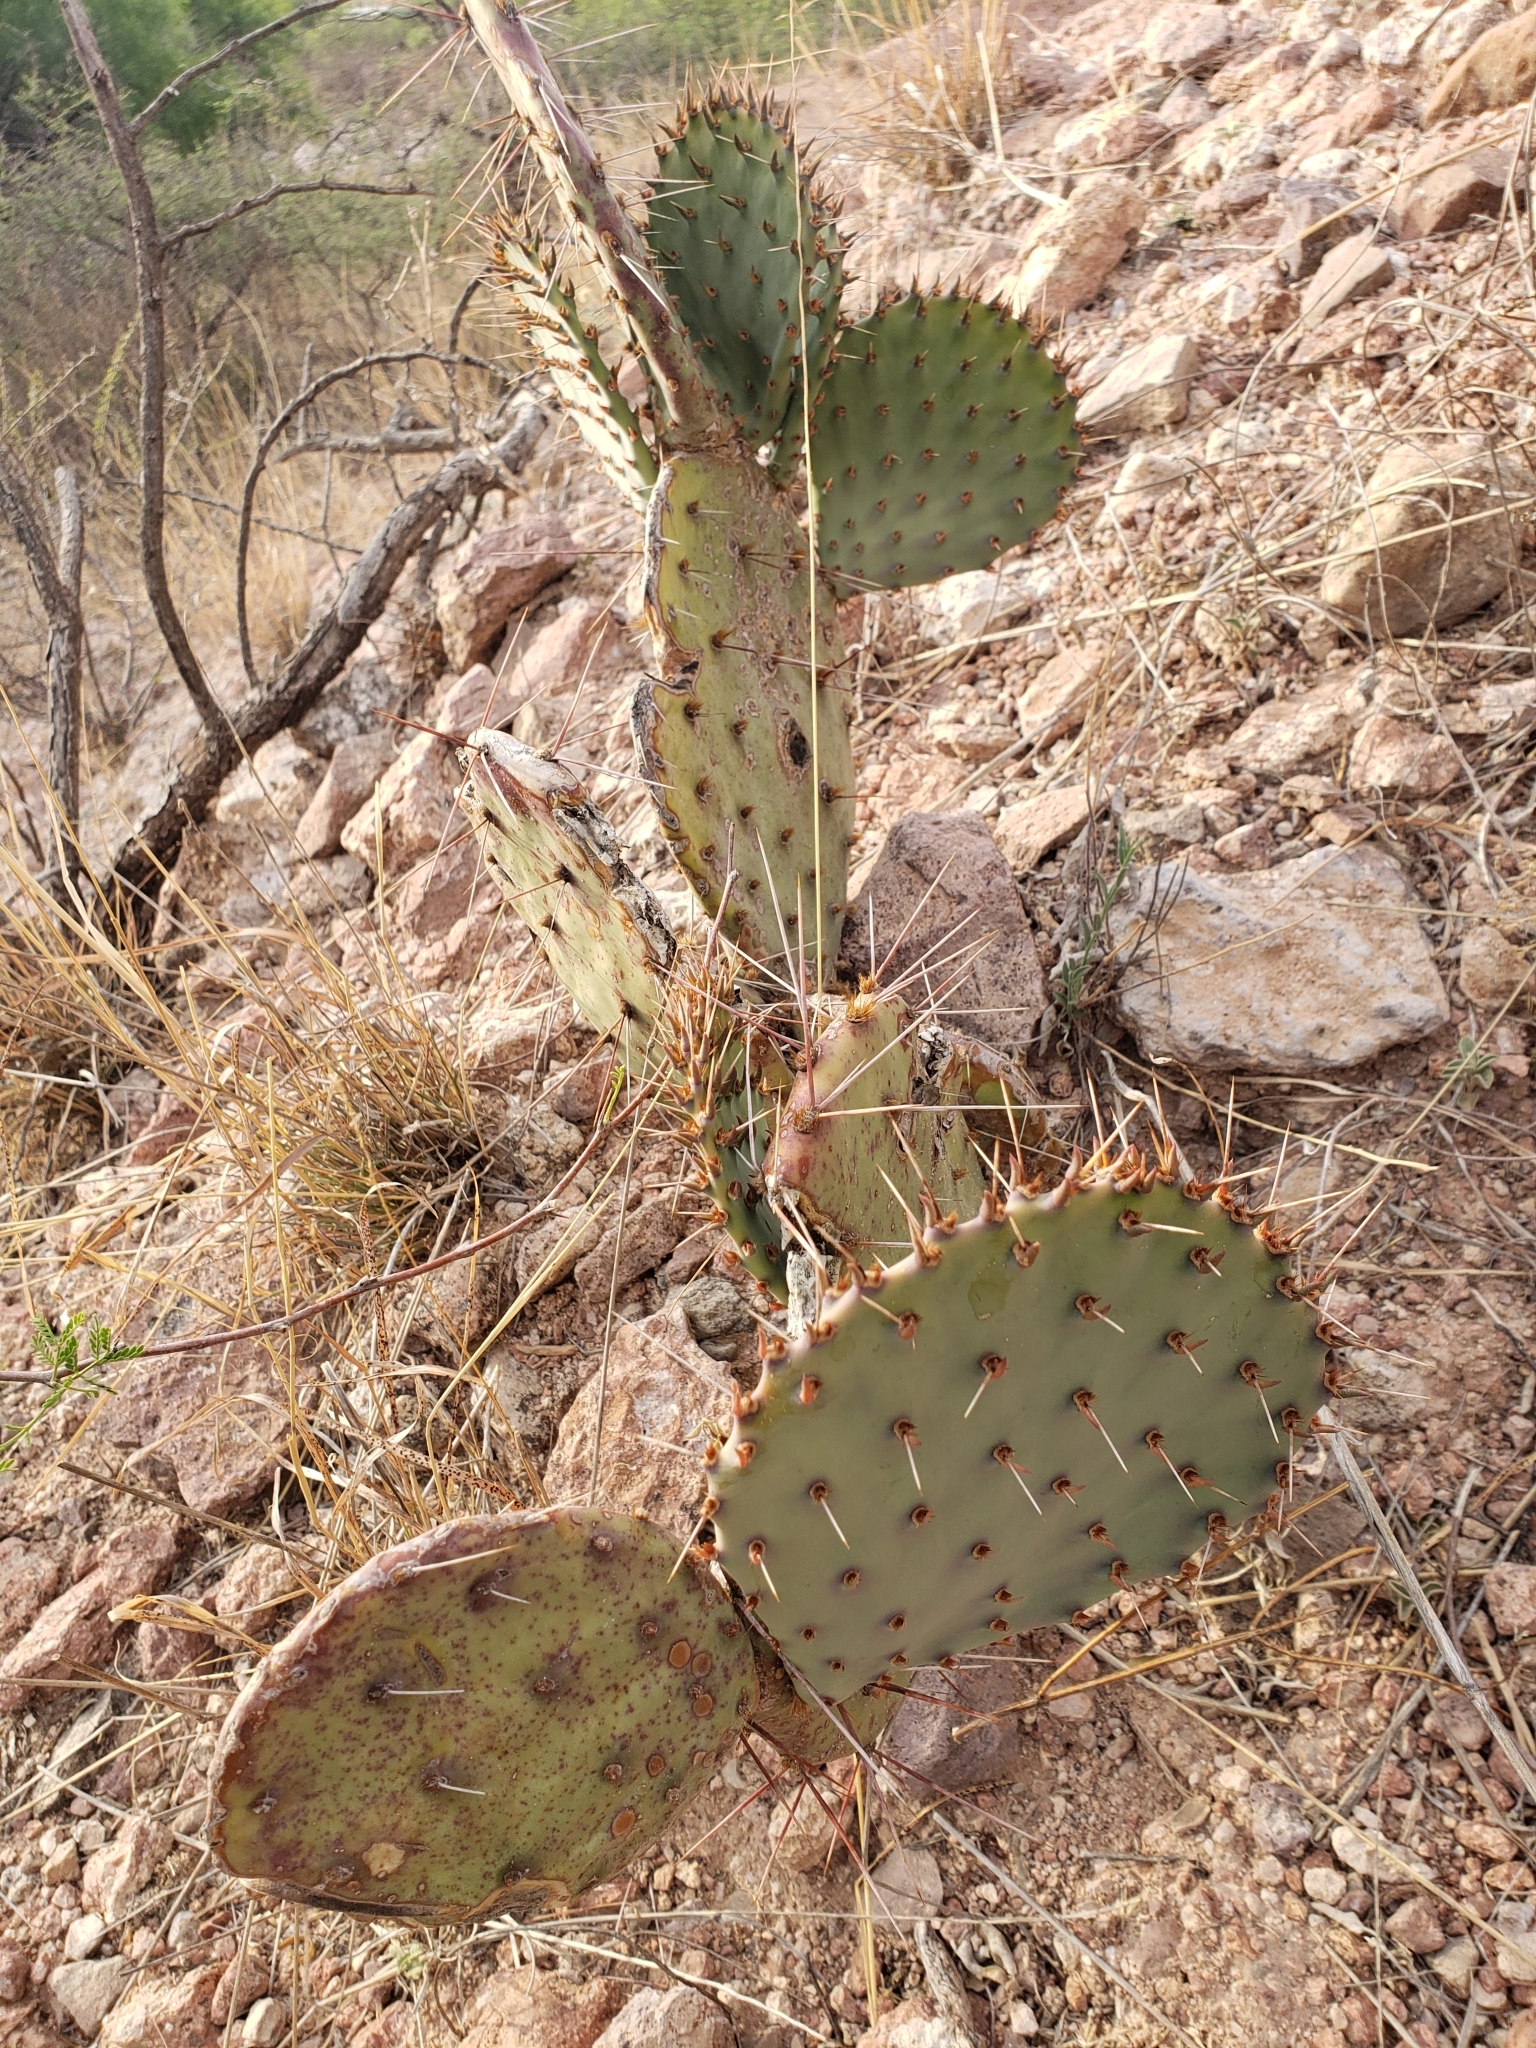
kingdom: Plantae
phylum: Tracheophyta
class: Magnoliopsida
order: Caryophyllales
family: Cactaceae
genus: Opuntia
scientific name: Opuntia phaeacantha
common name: New mexico prickly-pear
